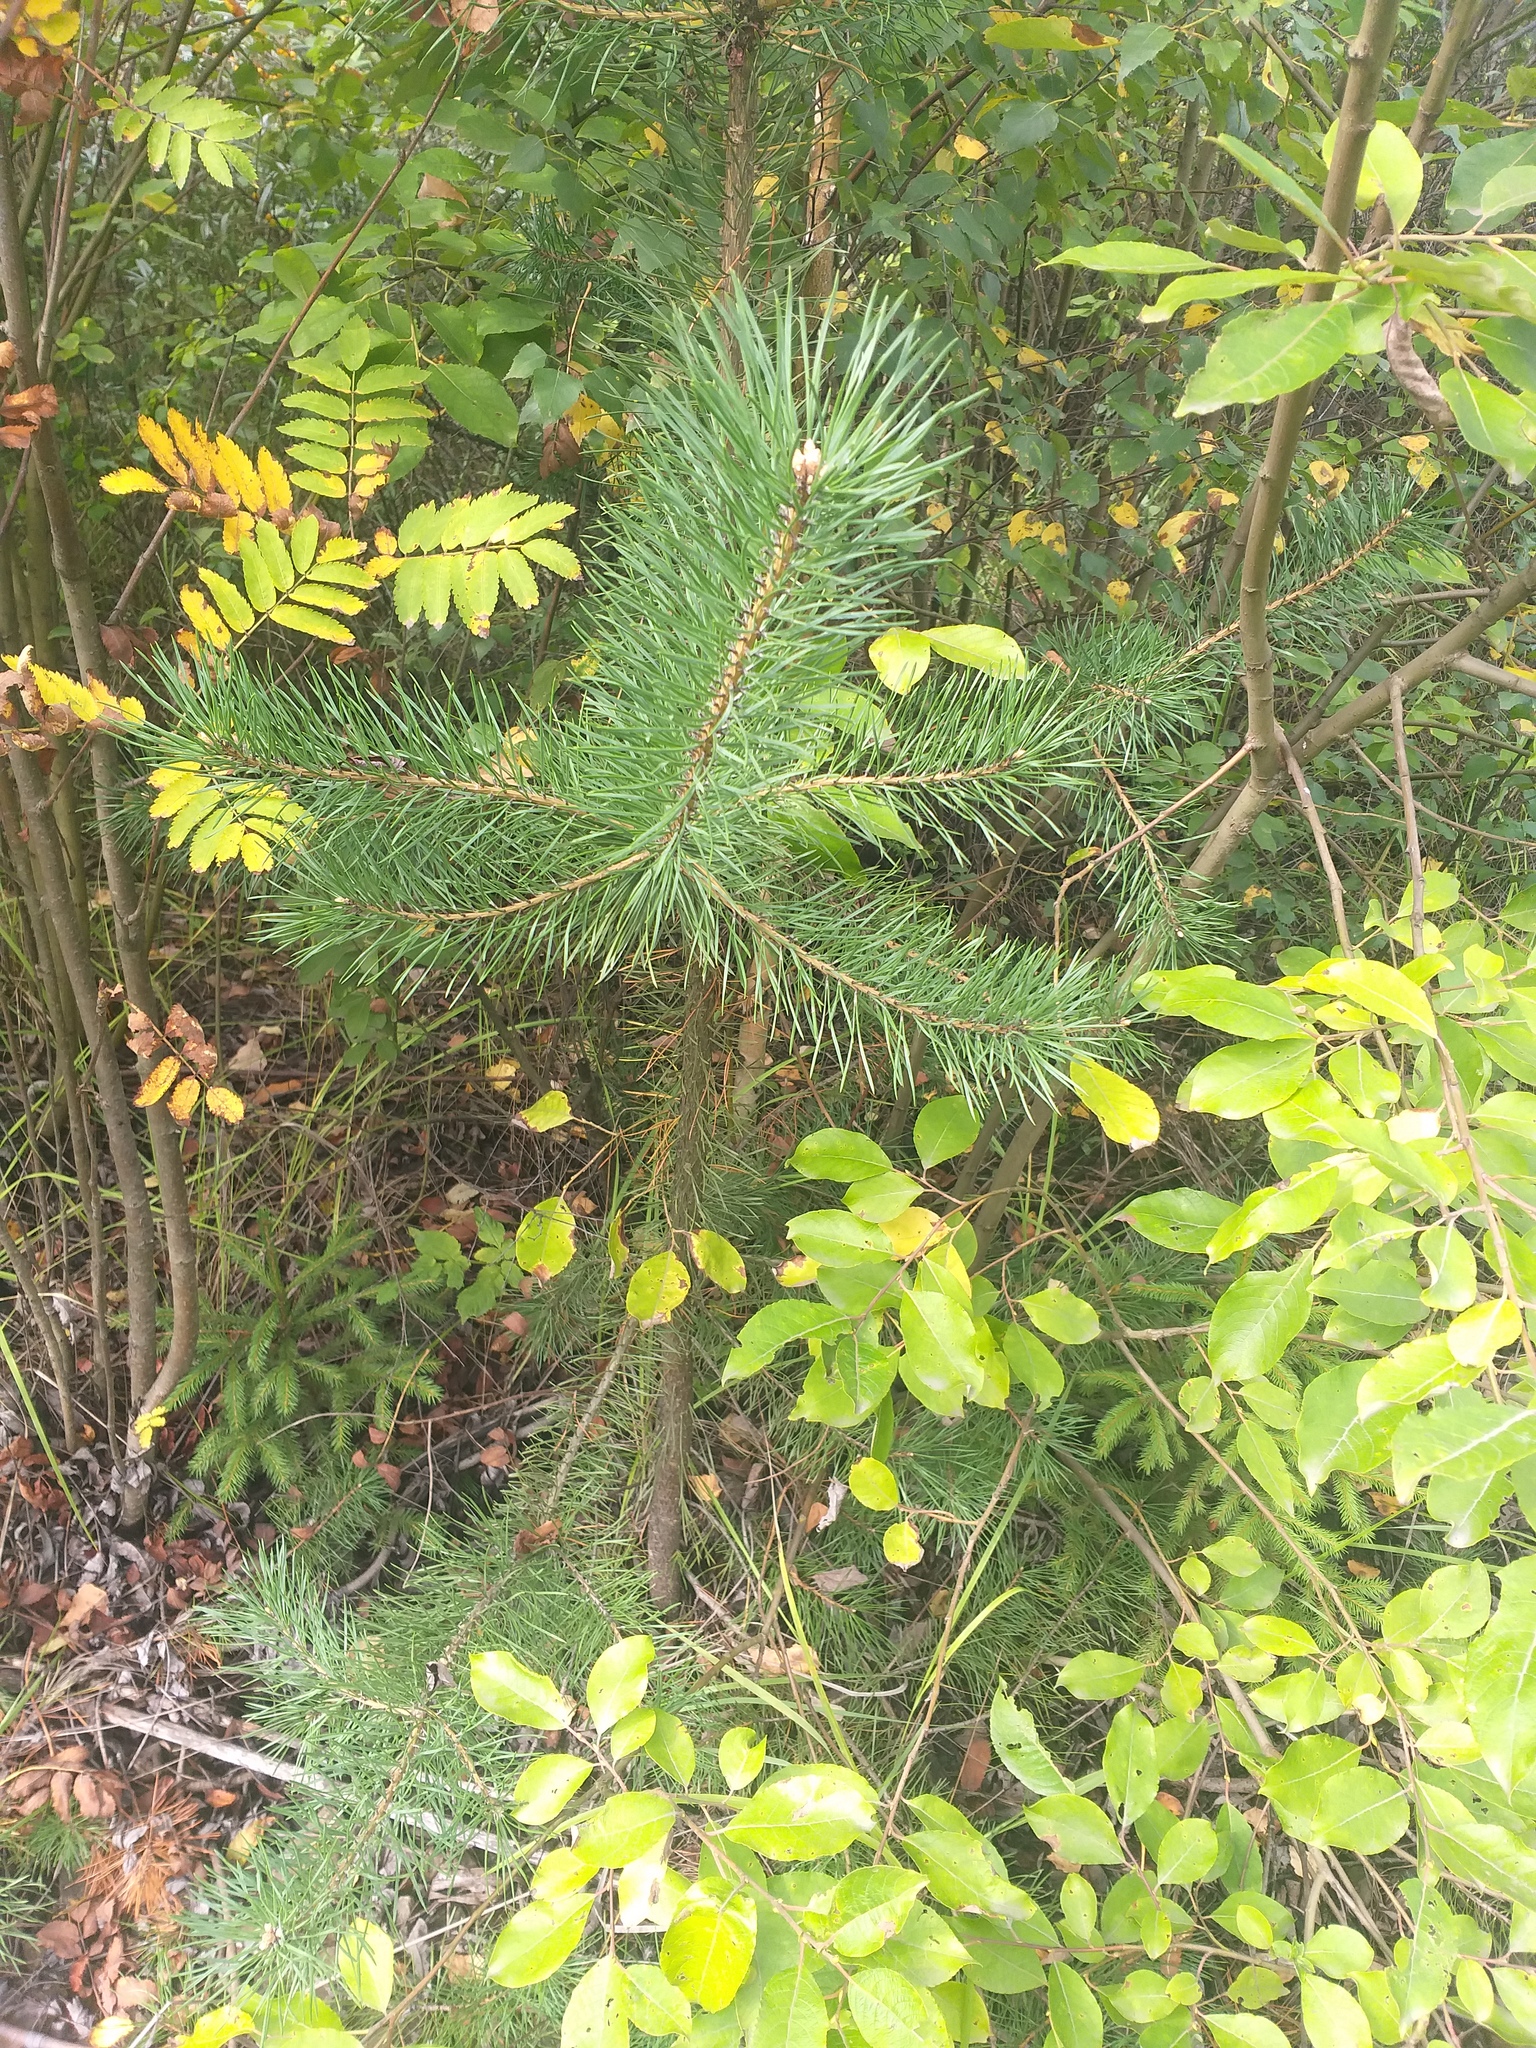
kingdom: Plantae
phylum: Tracheophyta
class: Pinopsida
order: Pinales
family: Pinaceae
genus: Pinus
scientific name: Pinus sylvestris
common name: Scots pine
